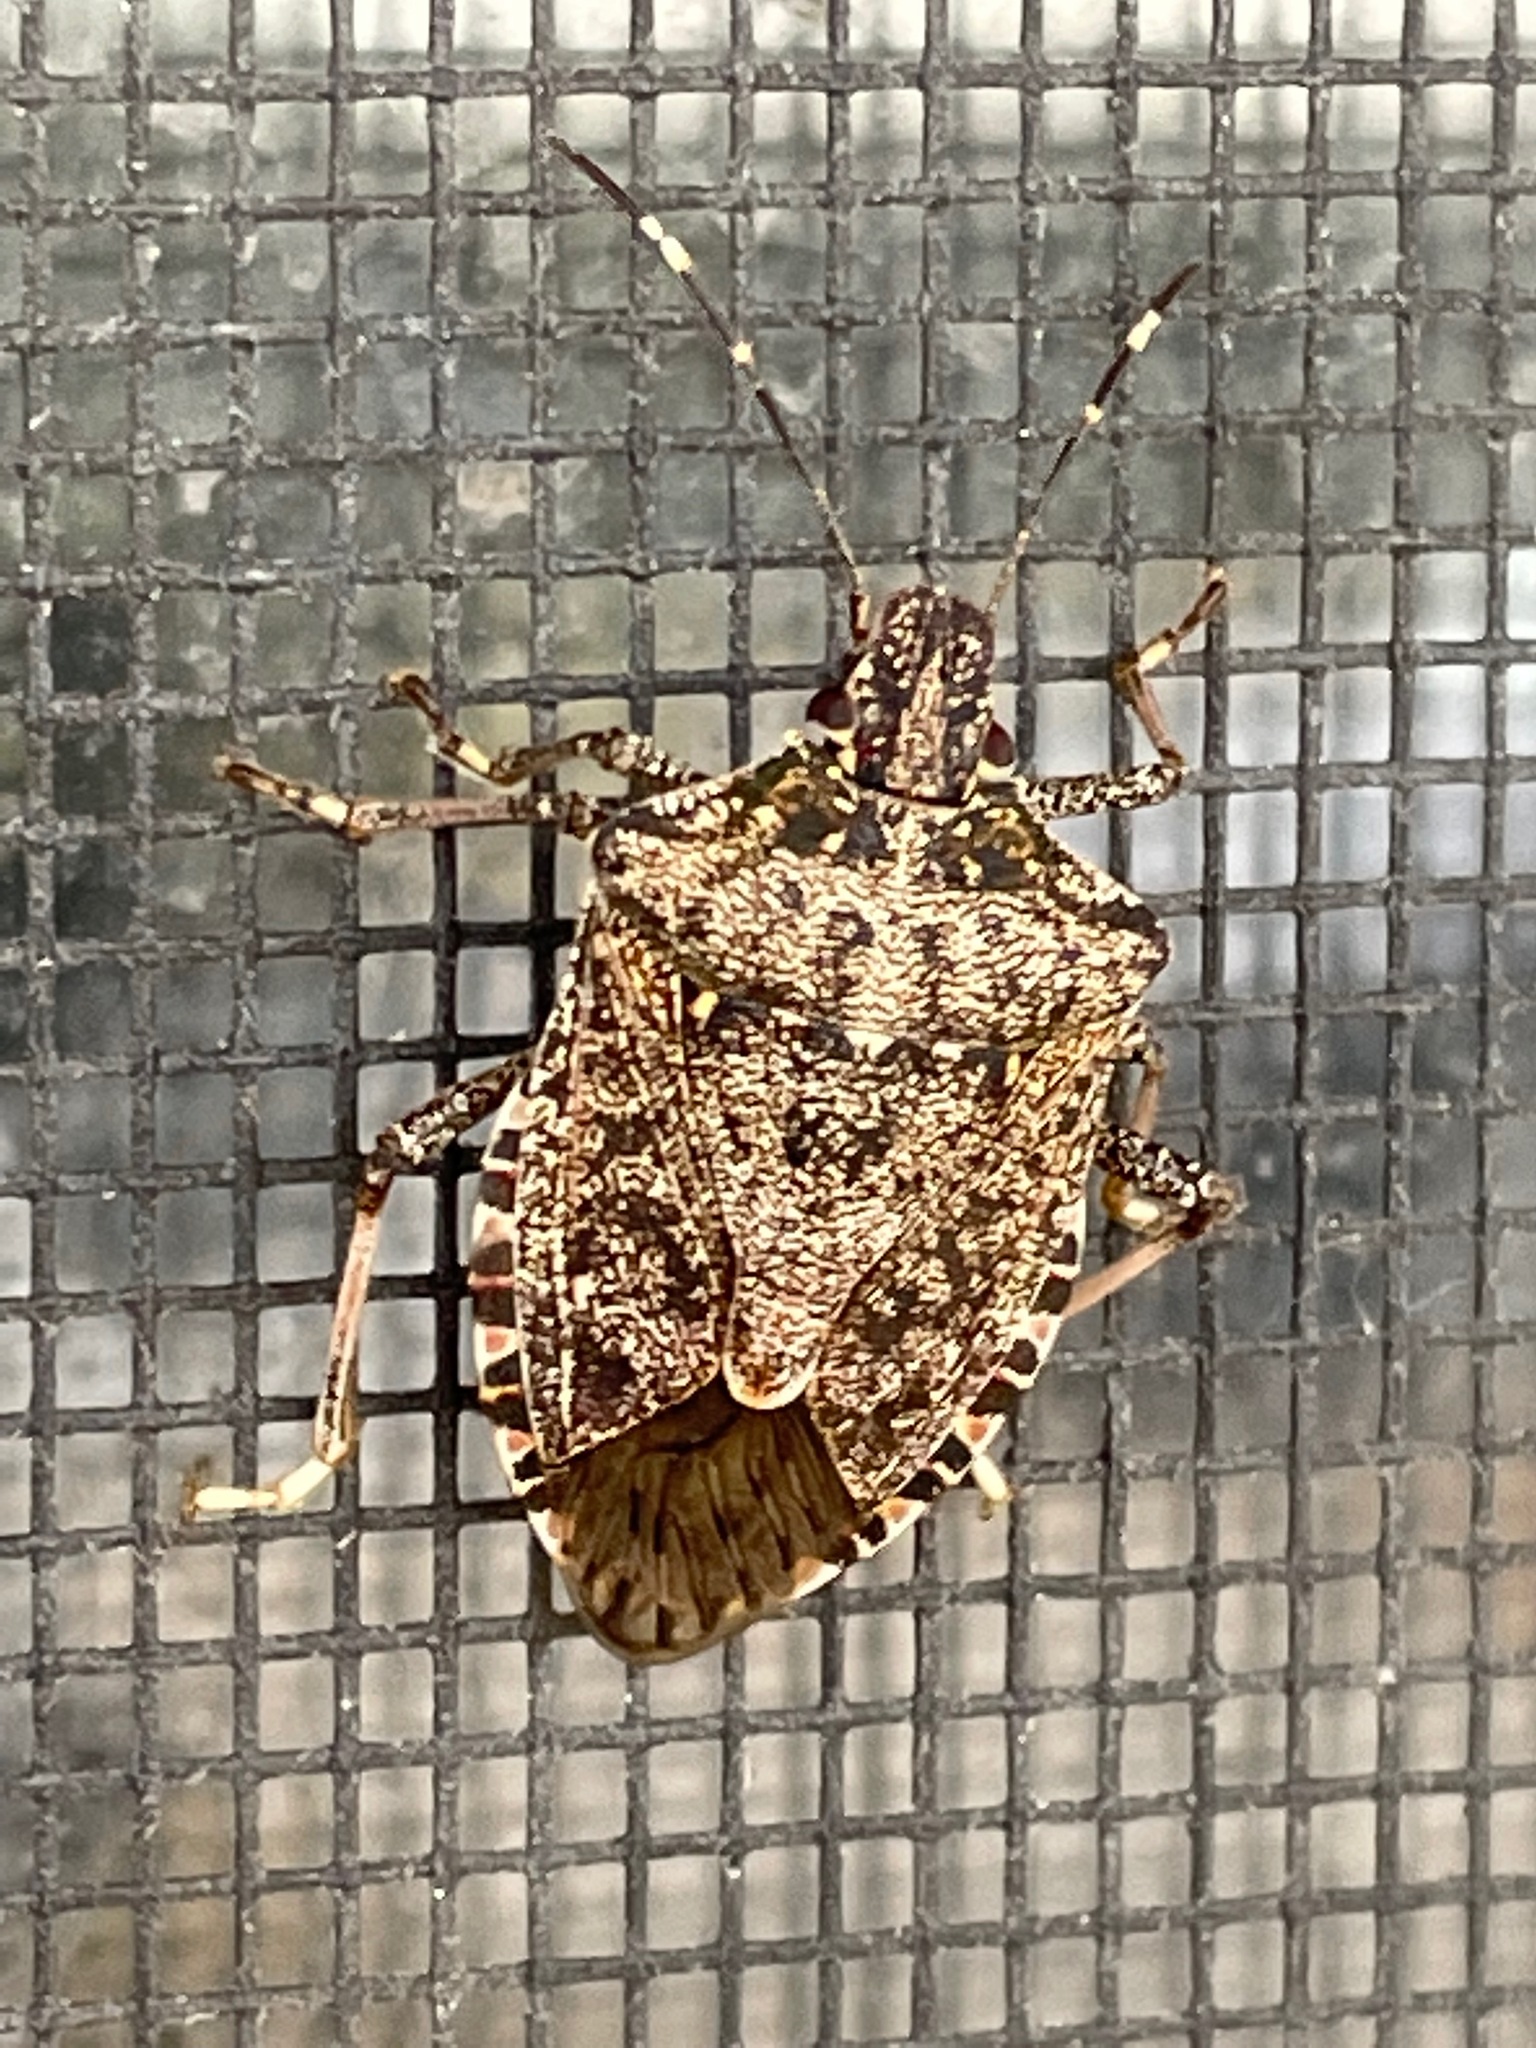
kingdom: Animalia
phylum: Arthropoda
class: Insecta
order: Hemiptera
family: Pentatomidae
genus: Halyomorpha
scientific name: Halyomorpha halys
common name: Brown marmorated stink bug
